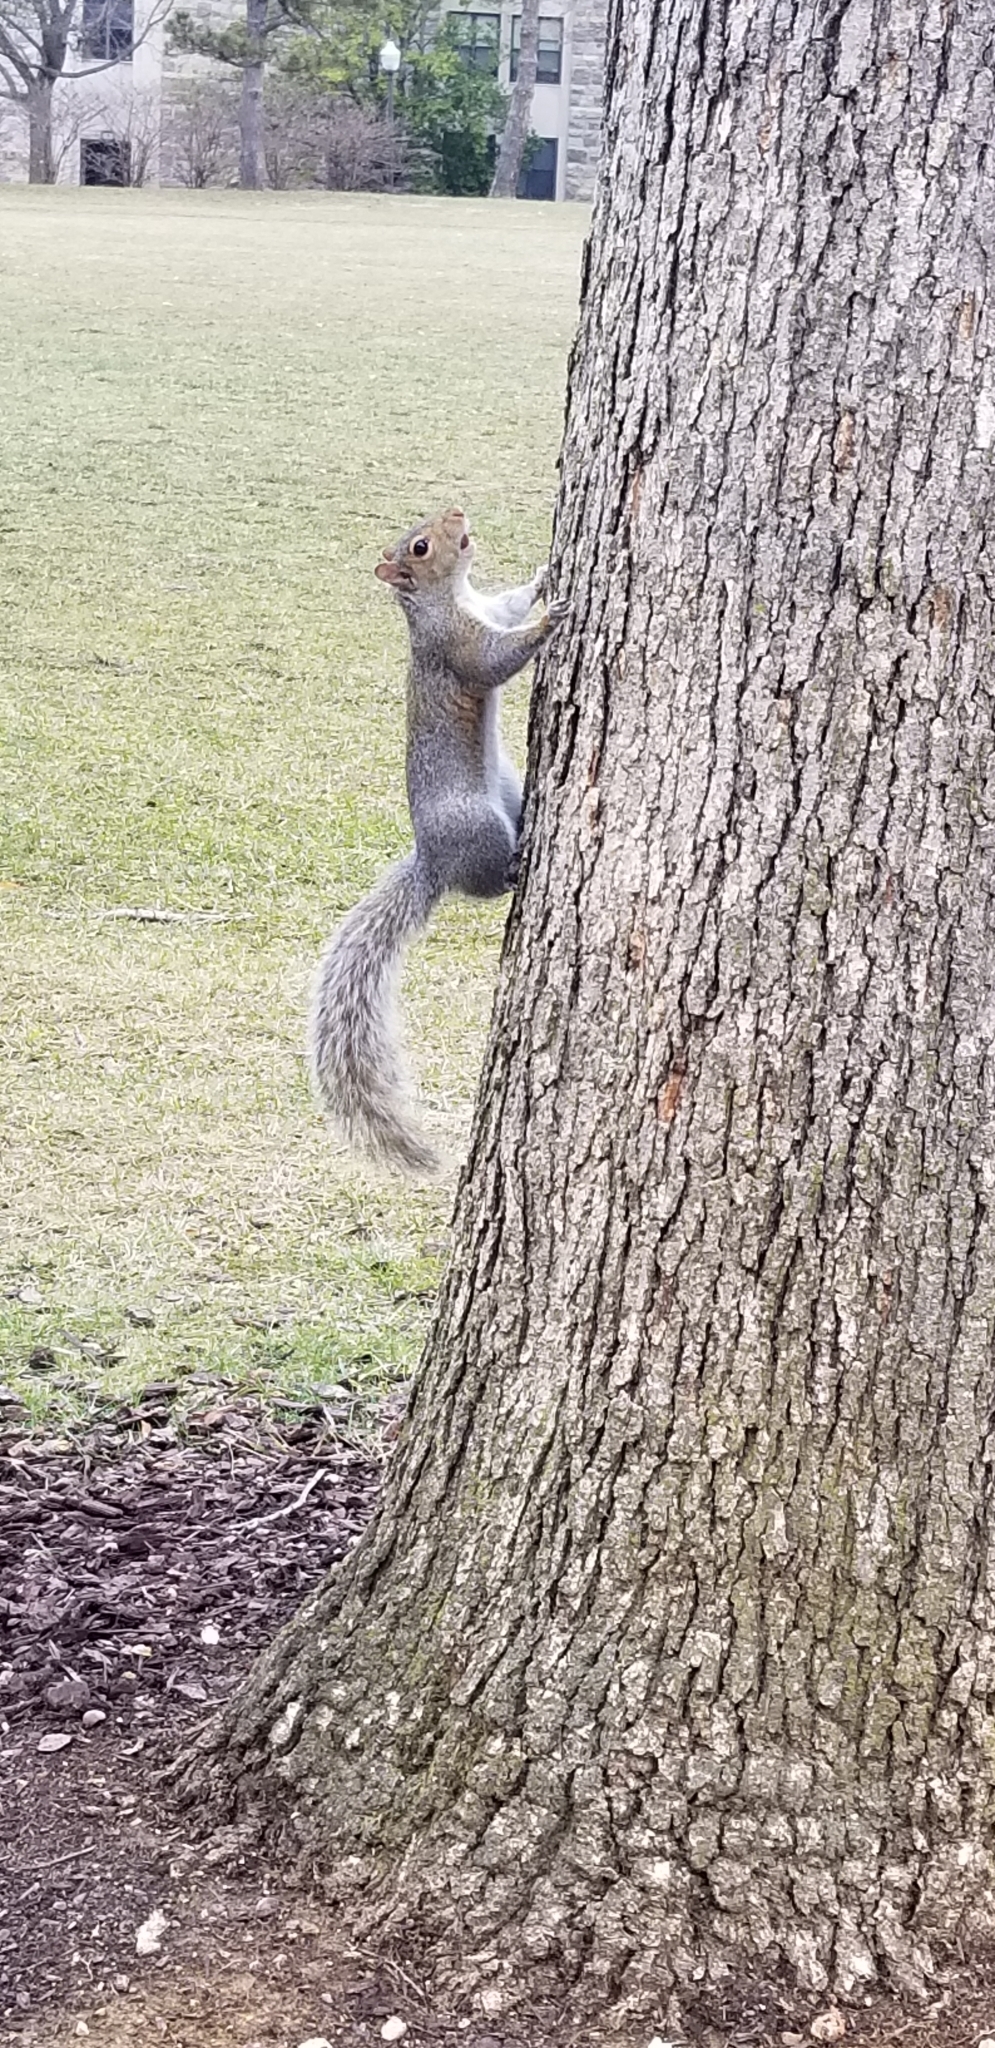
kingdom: Animalia
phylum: Chordata
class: Mammalia
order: Rodentia
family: Sciuridae
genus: Sciurus
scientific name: Sciurus carolinensis
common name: Eastern gray squirrel
